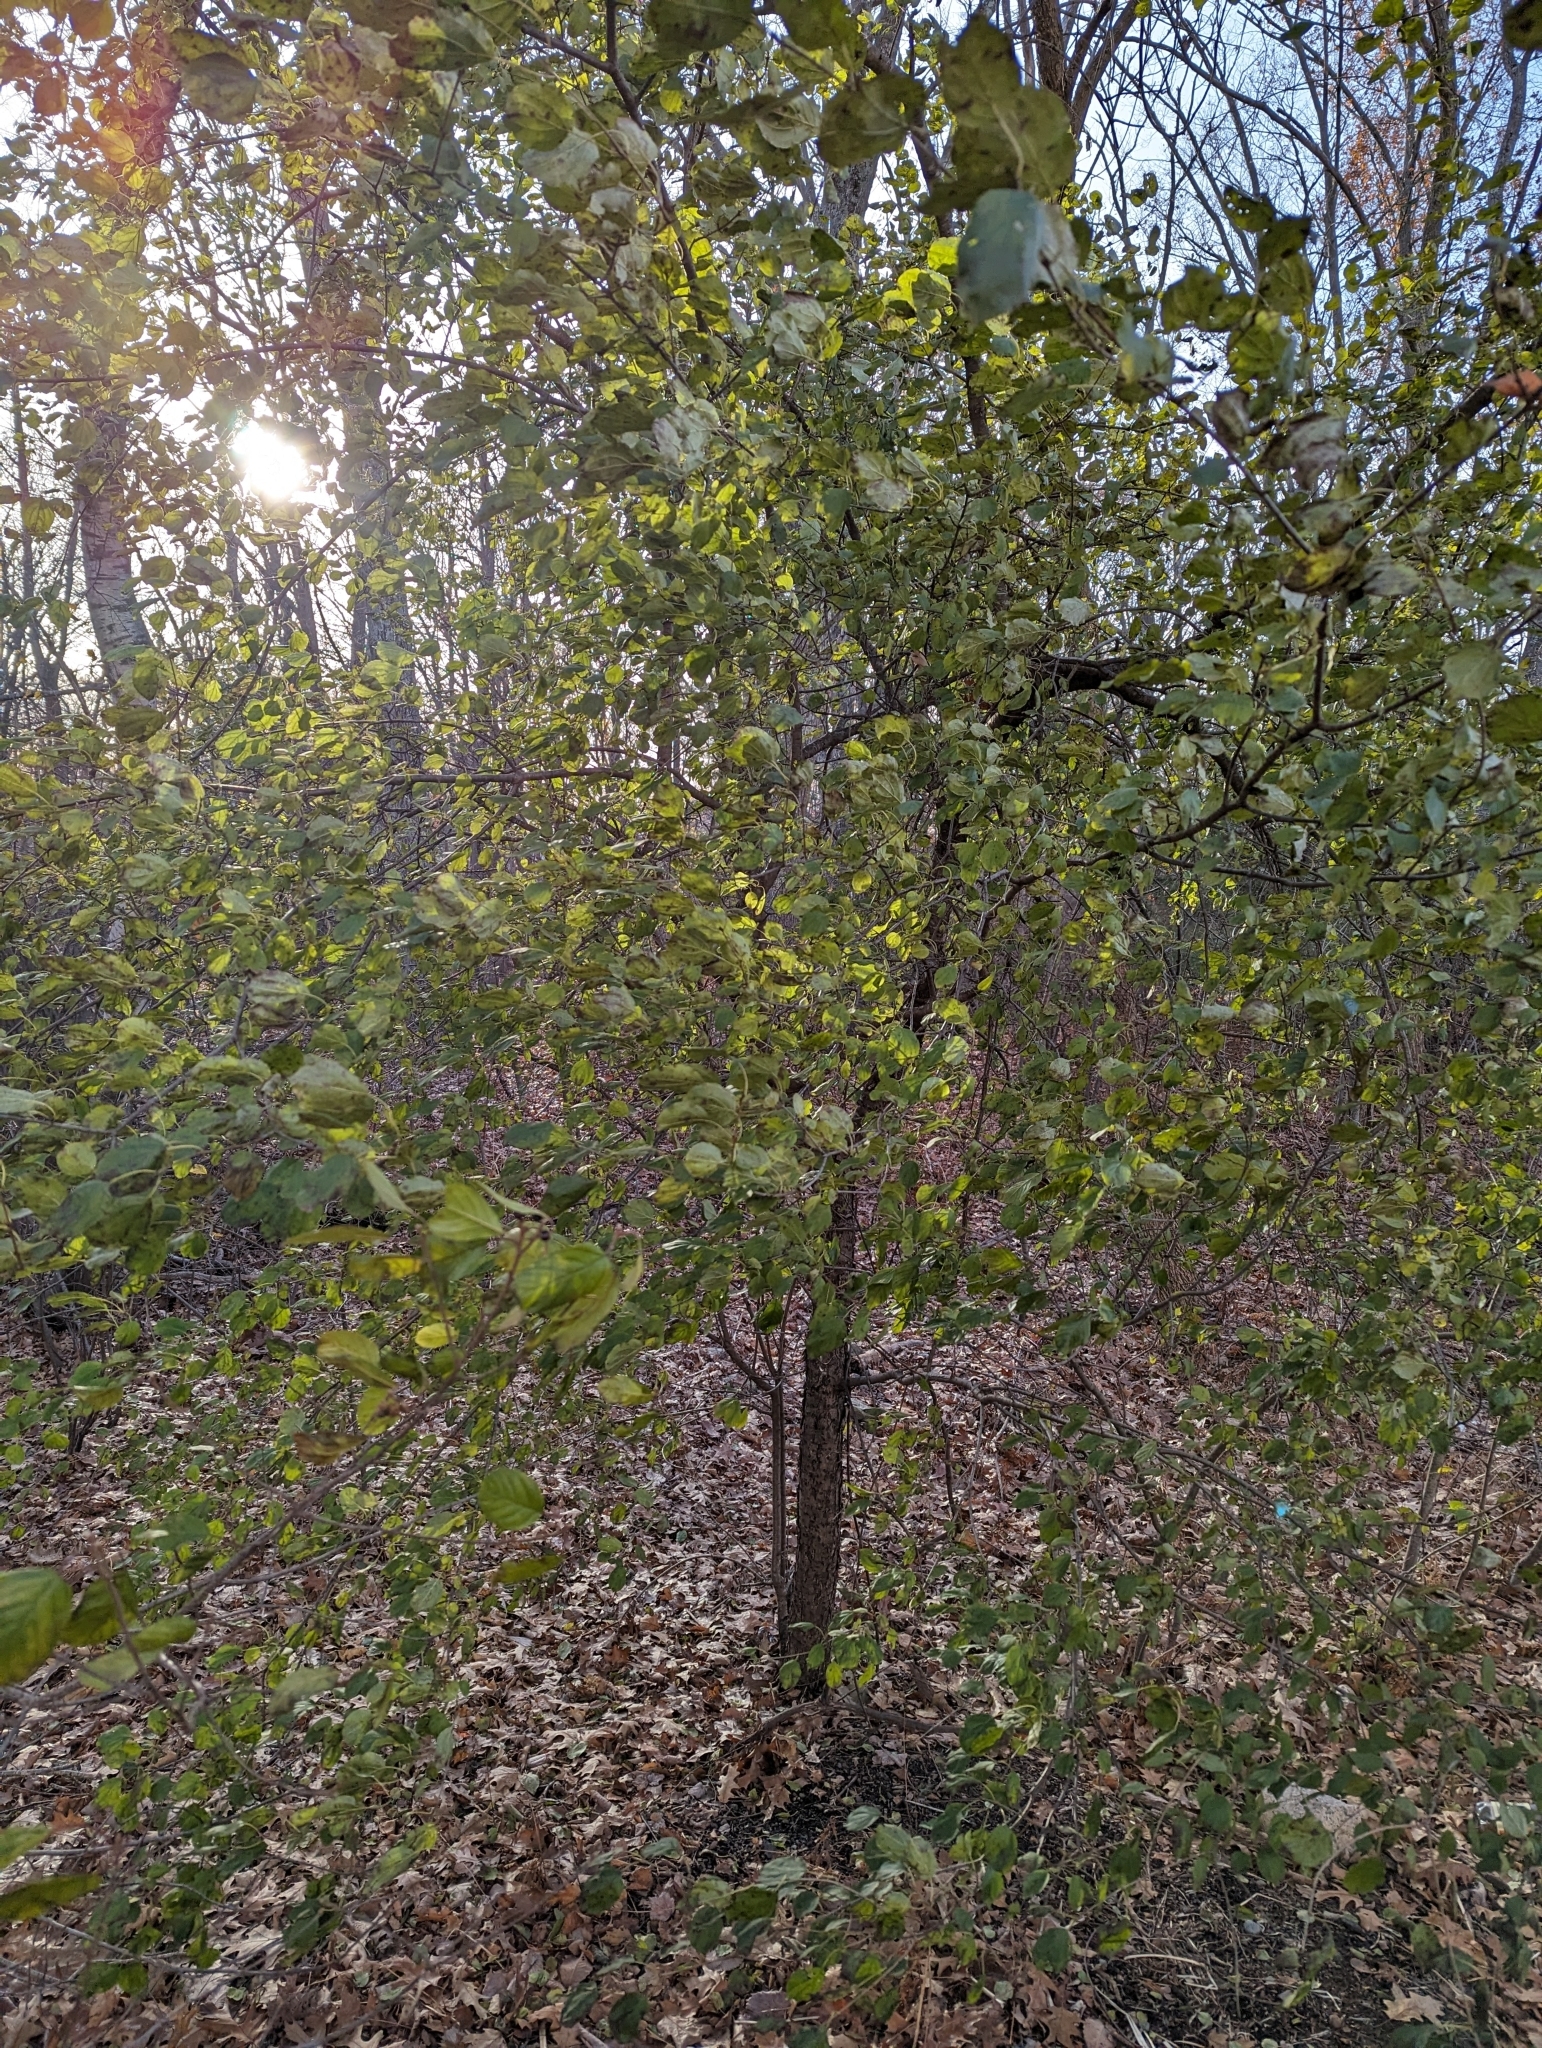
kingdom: Plantae
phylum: Tracheophyta
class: Magnoliopsida
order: Rosales
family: Rhamnaceae
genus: Rhamnus
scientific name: Rhamnus cathartica
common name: Common buckthorn
